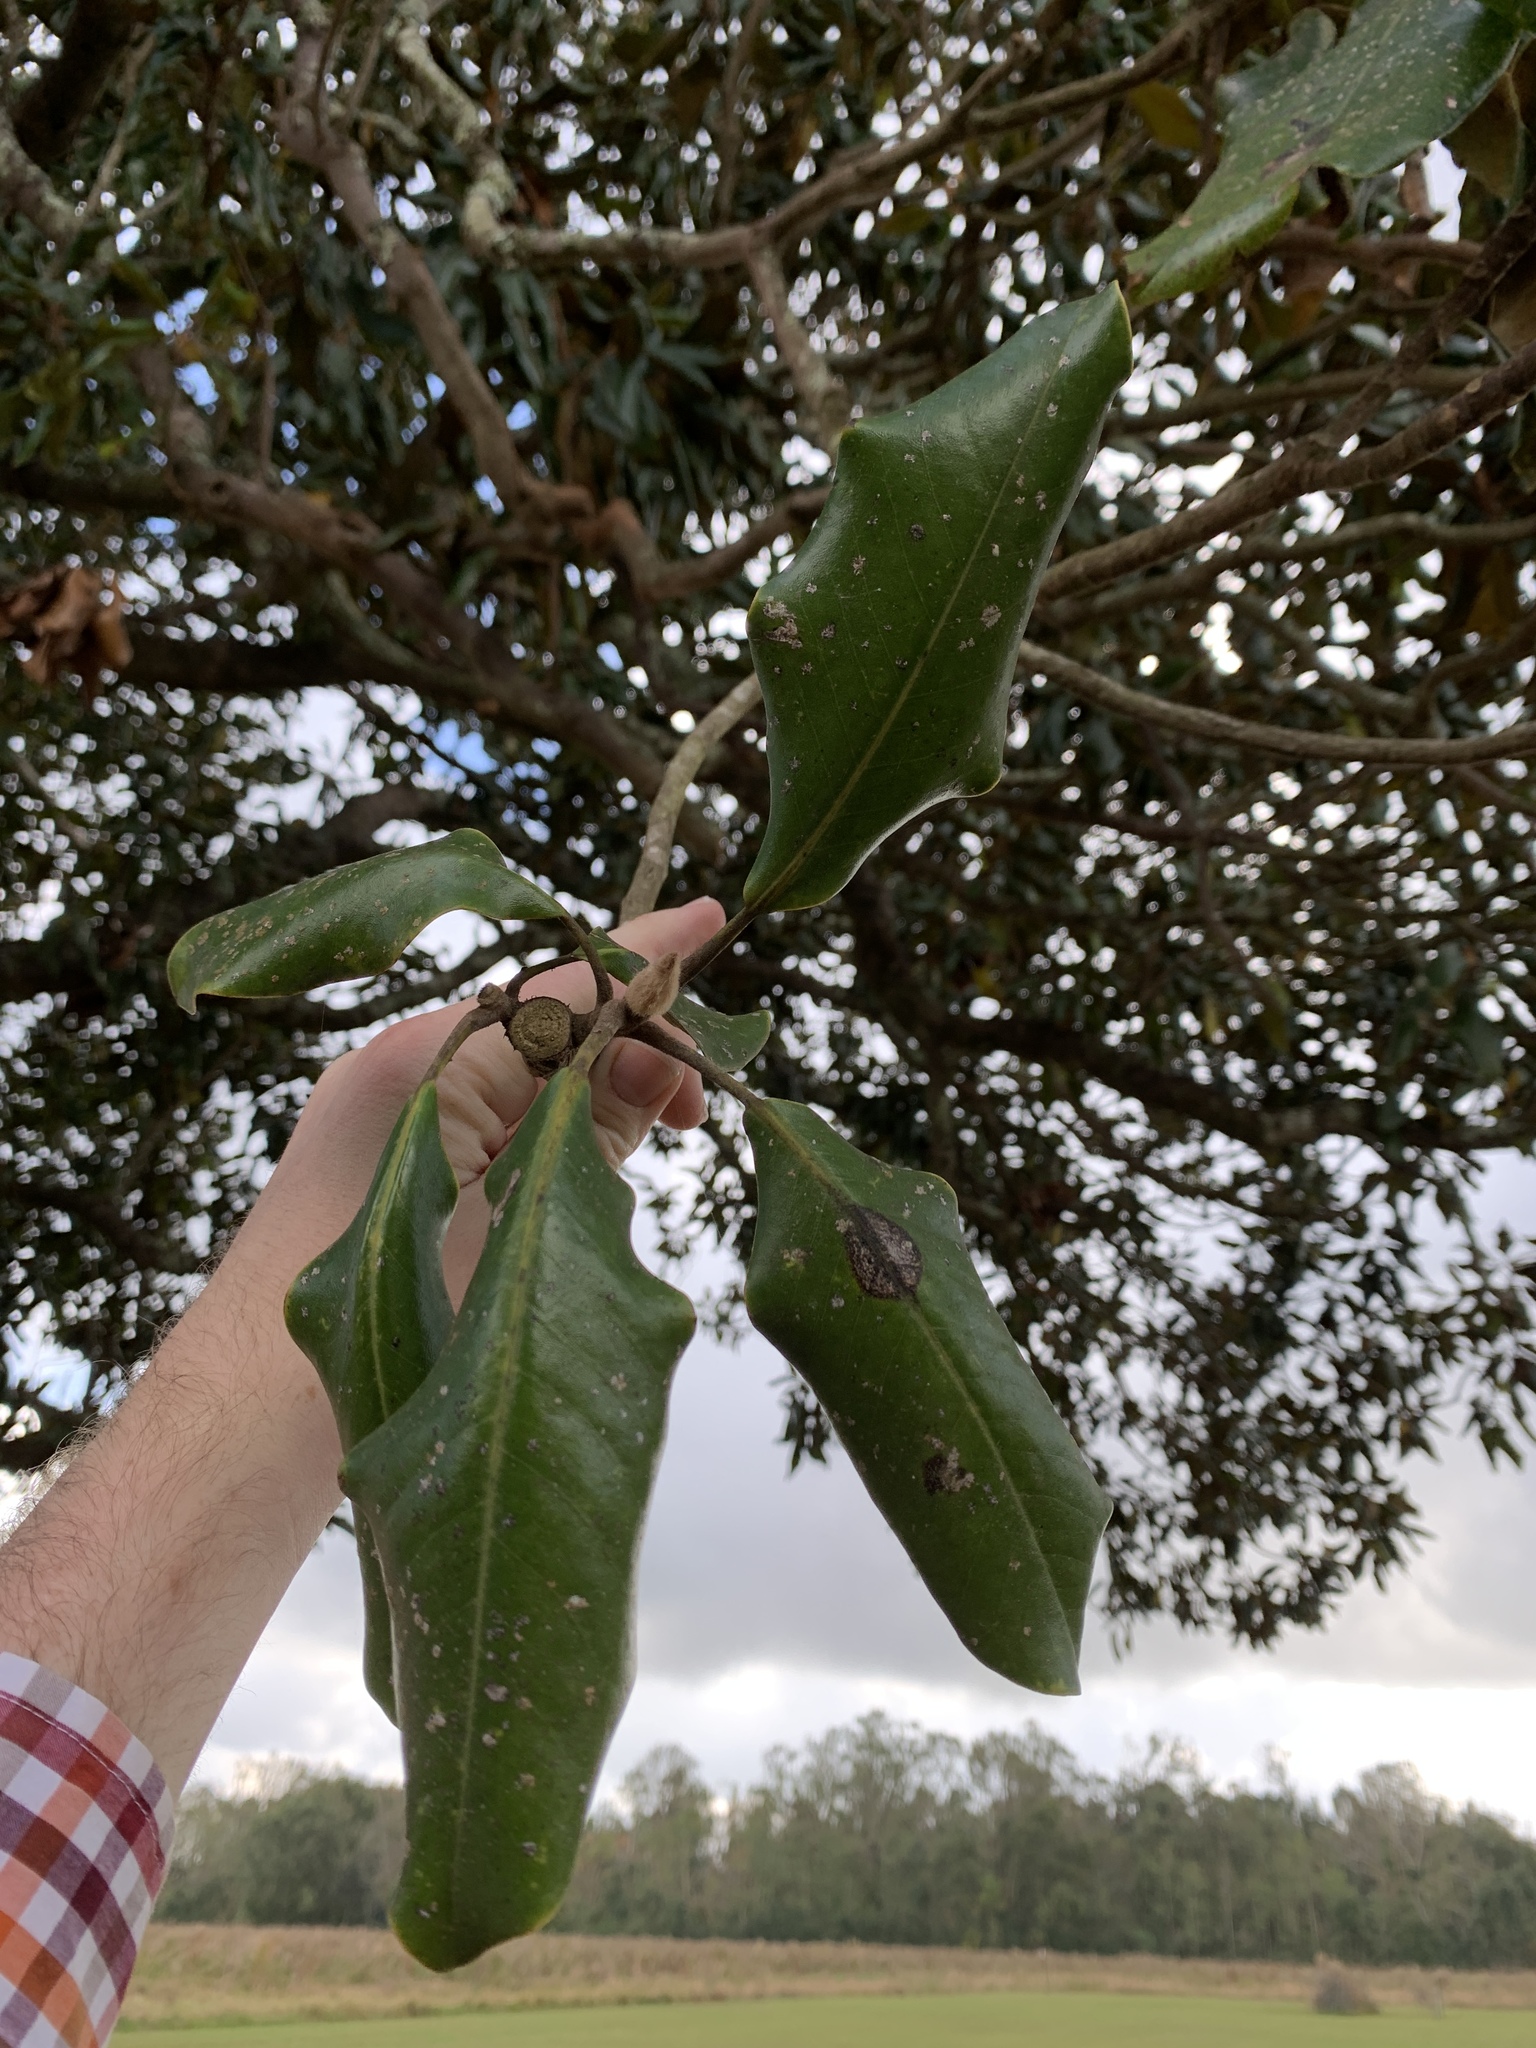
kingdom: Plantae
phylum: Tracheophyta
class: Magnoliopsida
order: Magnoliales
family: Magnoliaceae
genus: Magnolia
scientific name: Magnolia grandiflora
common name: Southern magnolia
